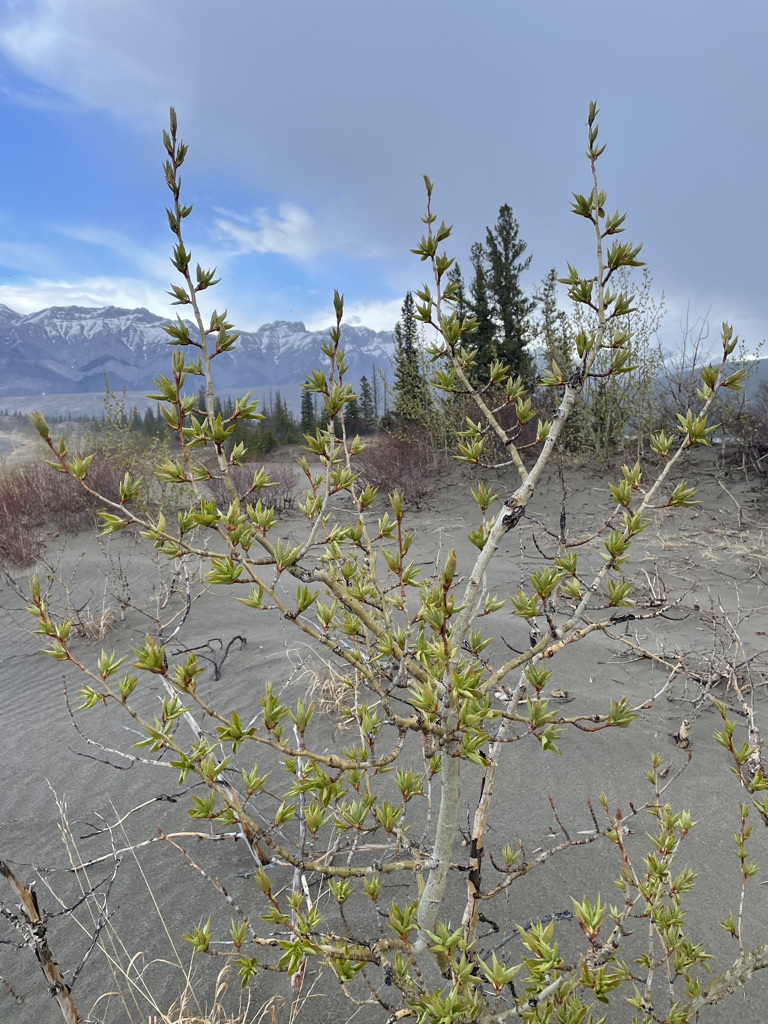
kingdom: Plantae
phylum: Tracheophyta
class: Magnoliopsida
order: Malpighiales
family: Salicaceae
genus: Populus
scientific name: Populus balsamifera
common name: Balsam poplar
